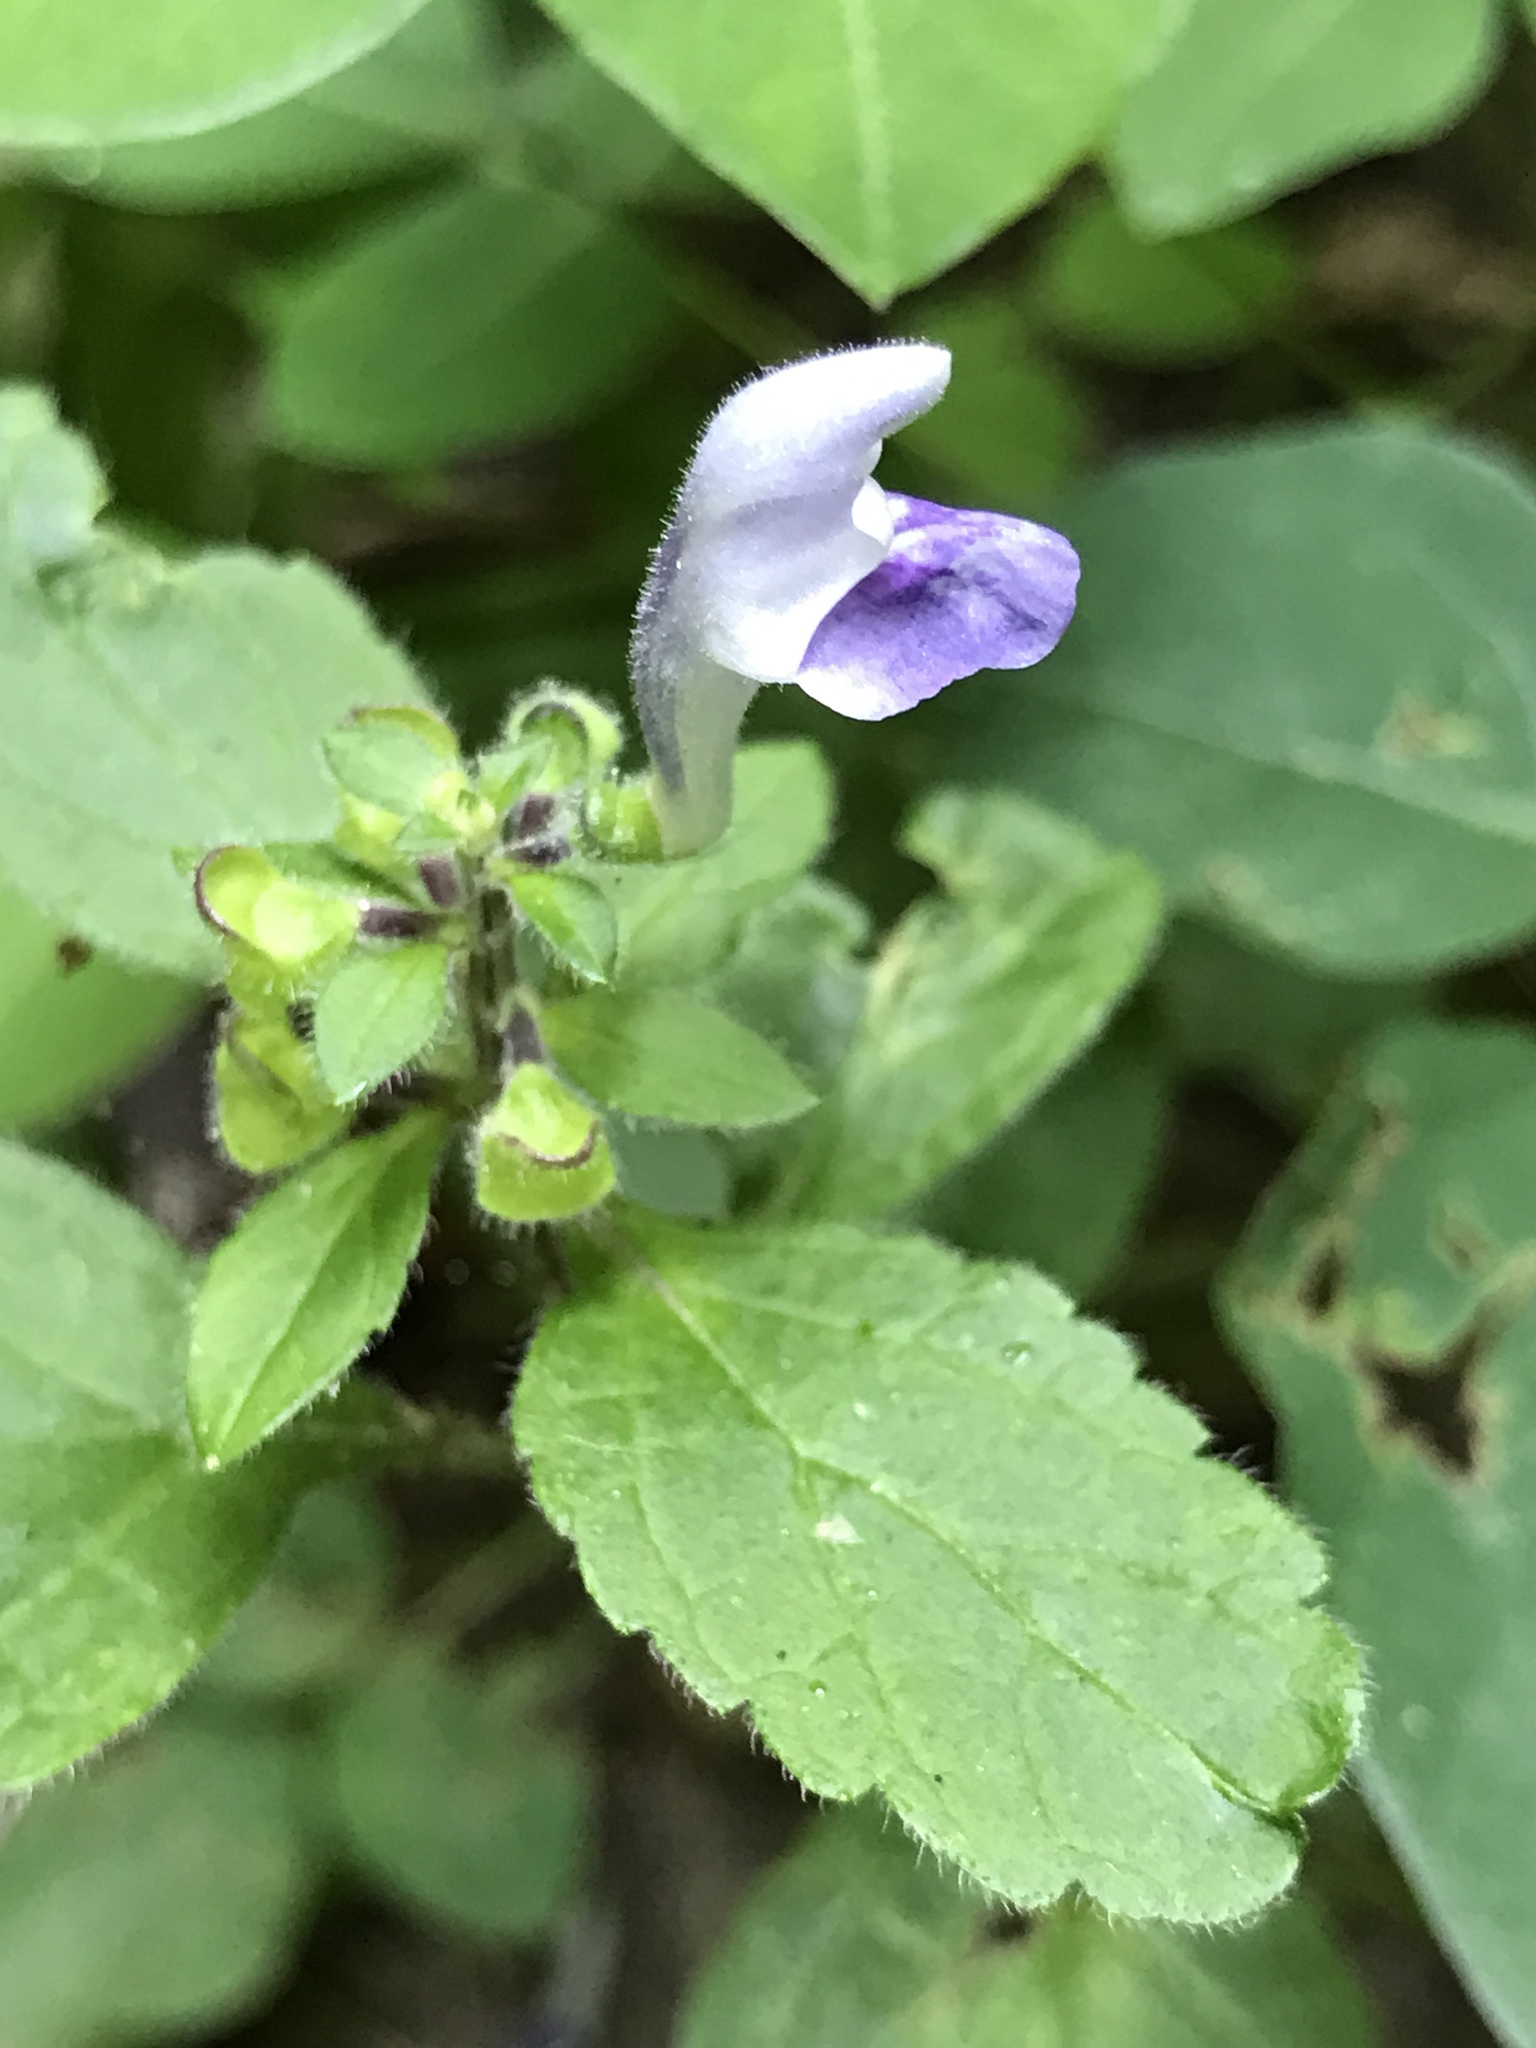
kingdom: Plantae
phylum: Tracheophyta
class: Magnoliopsida
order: Lamiales
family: Lamiaceae
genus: Scutellaria
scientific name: Scutellaria elliptica
